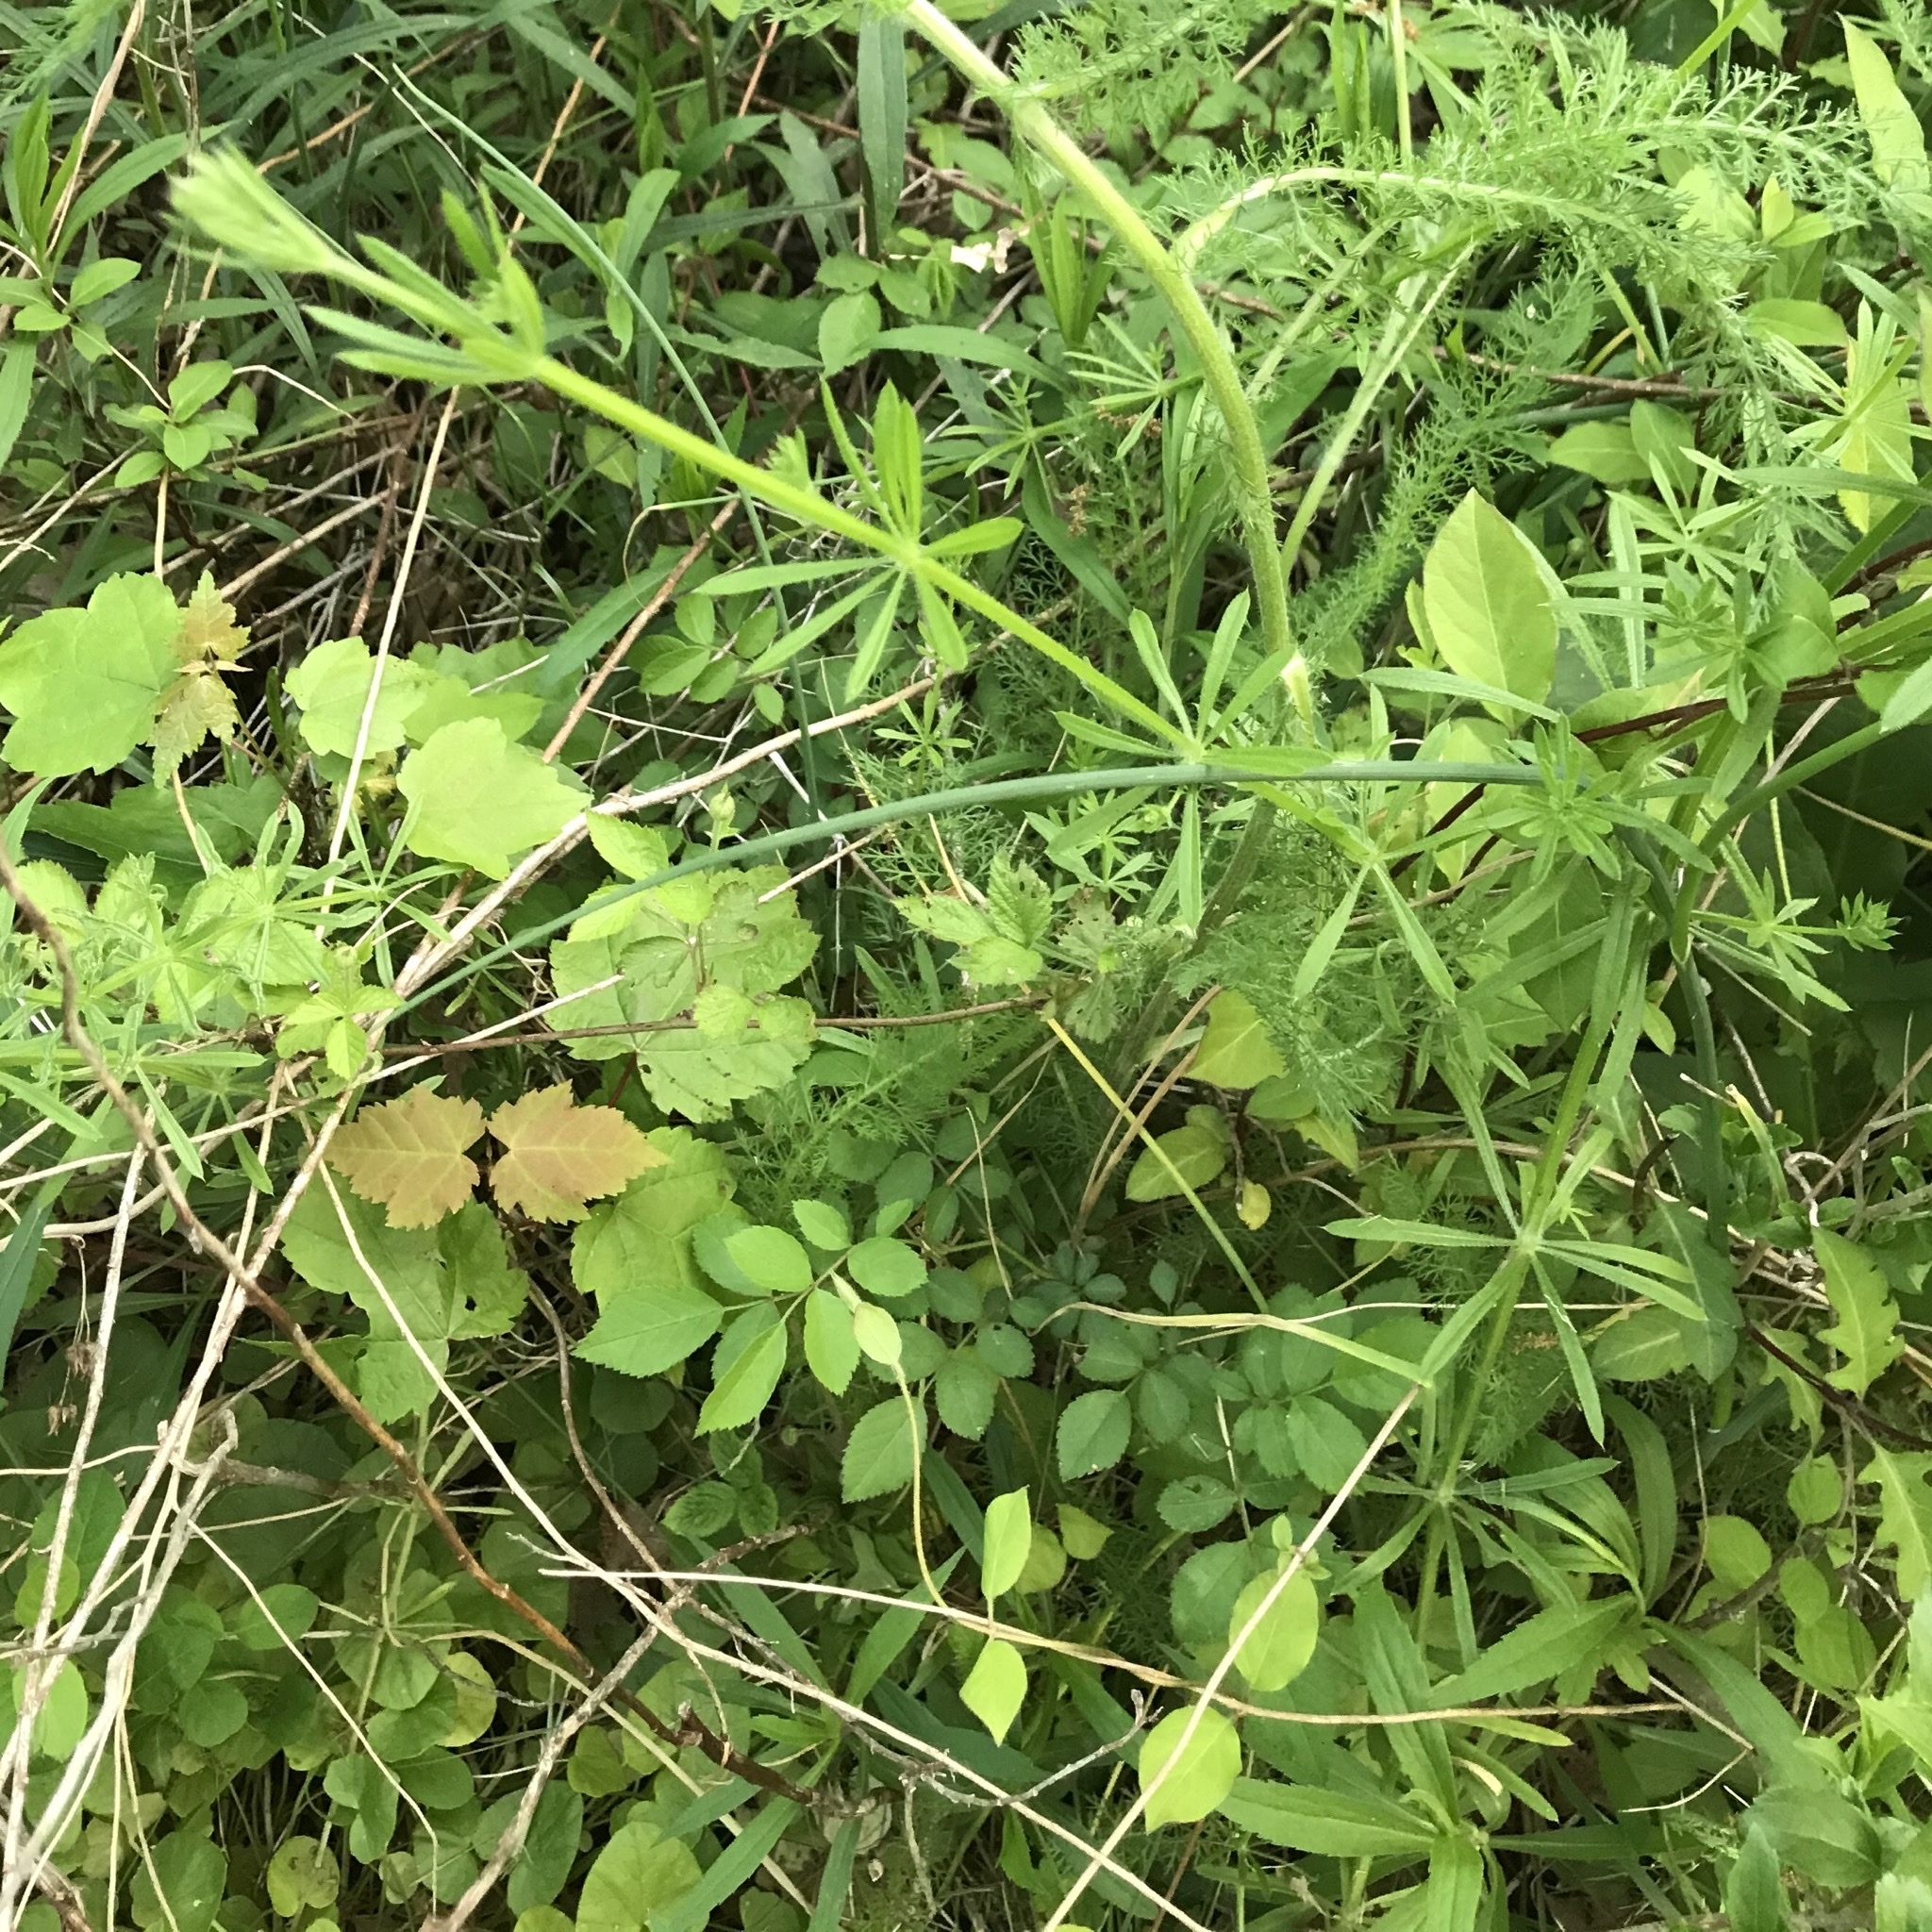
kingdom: Plantae
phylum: Tracheophyta
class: Magnoliopsida
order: Gentianales
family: Rubiaceae
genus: Galium
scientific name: Galium aparine
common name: Cleavers
